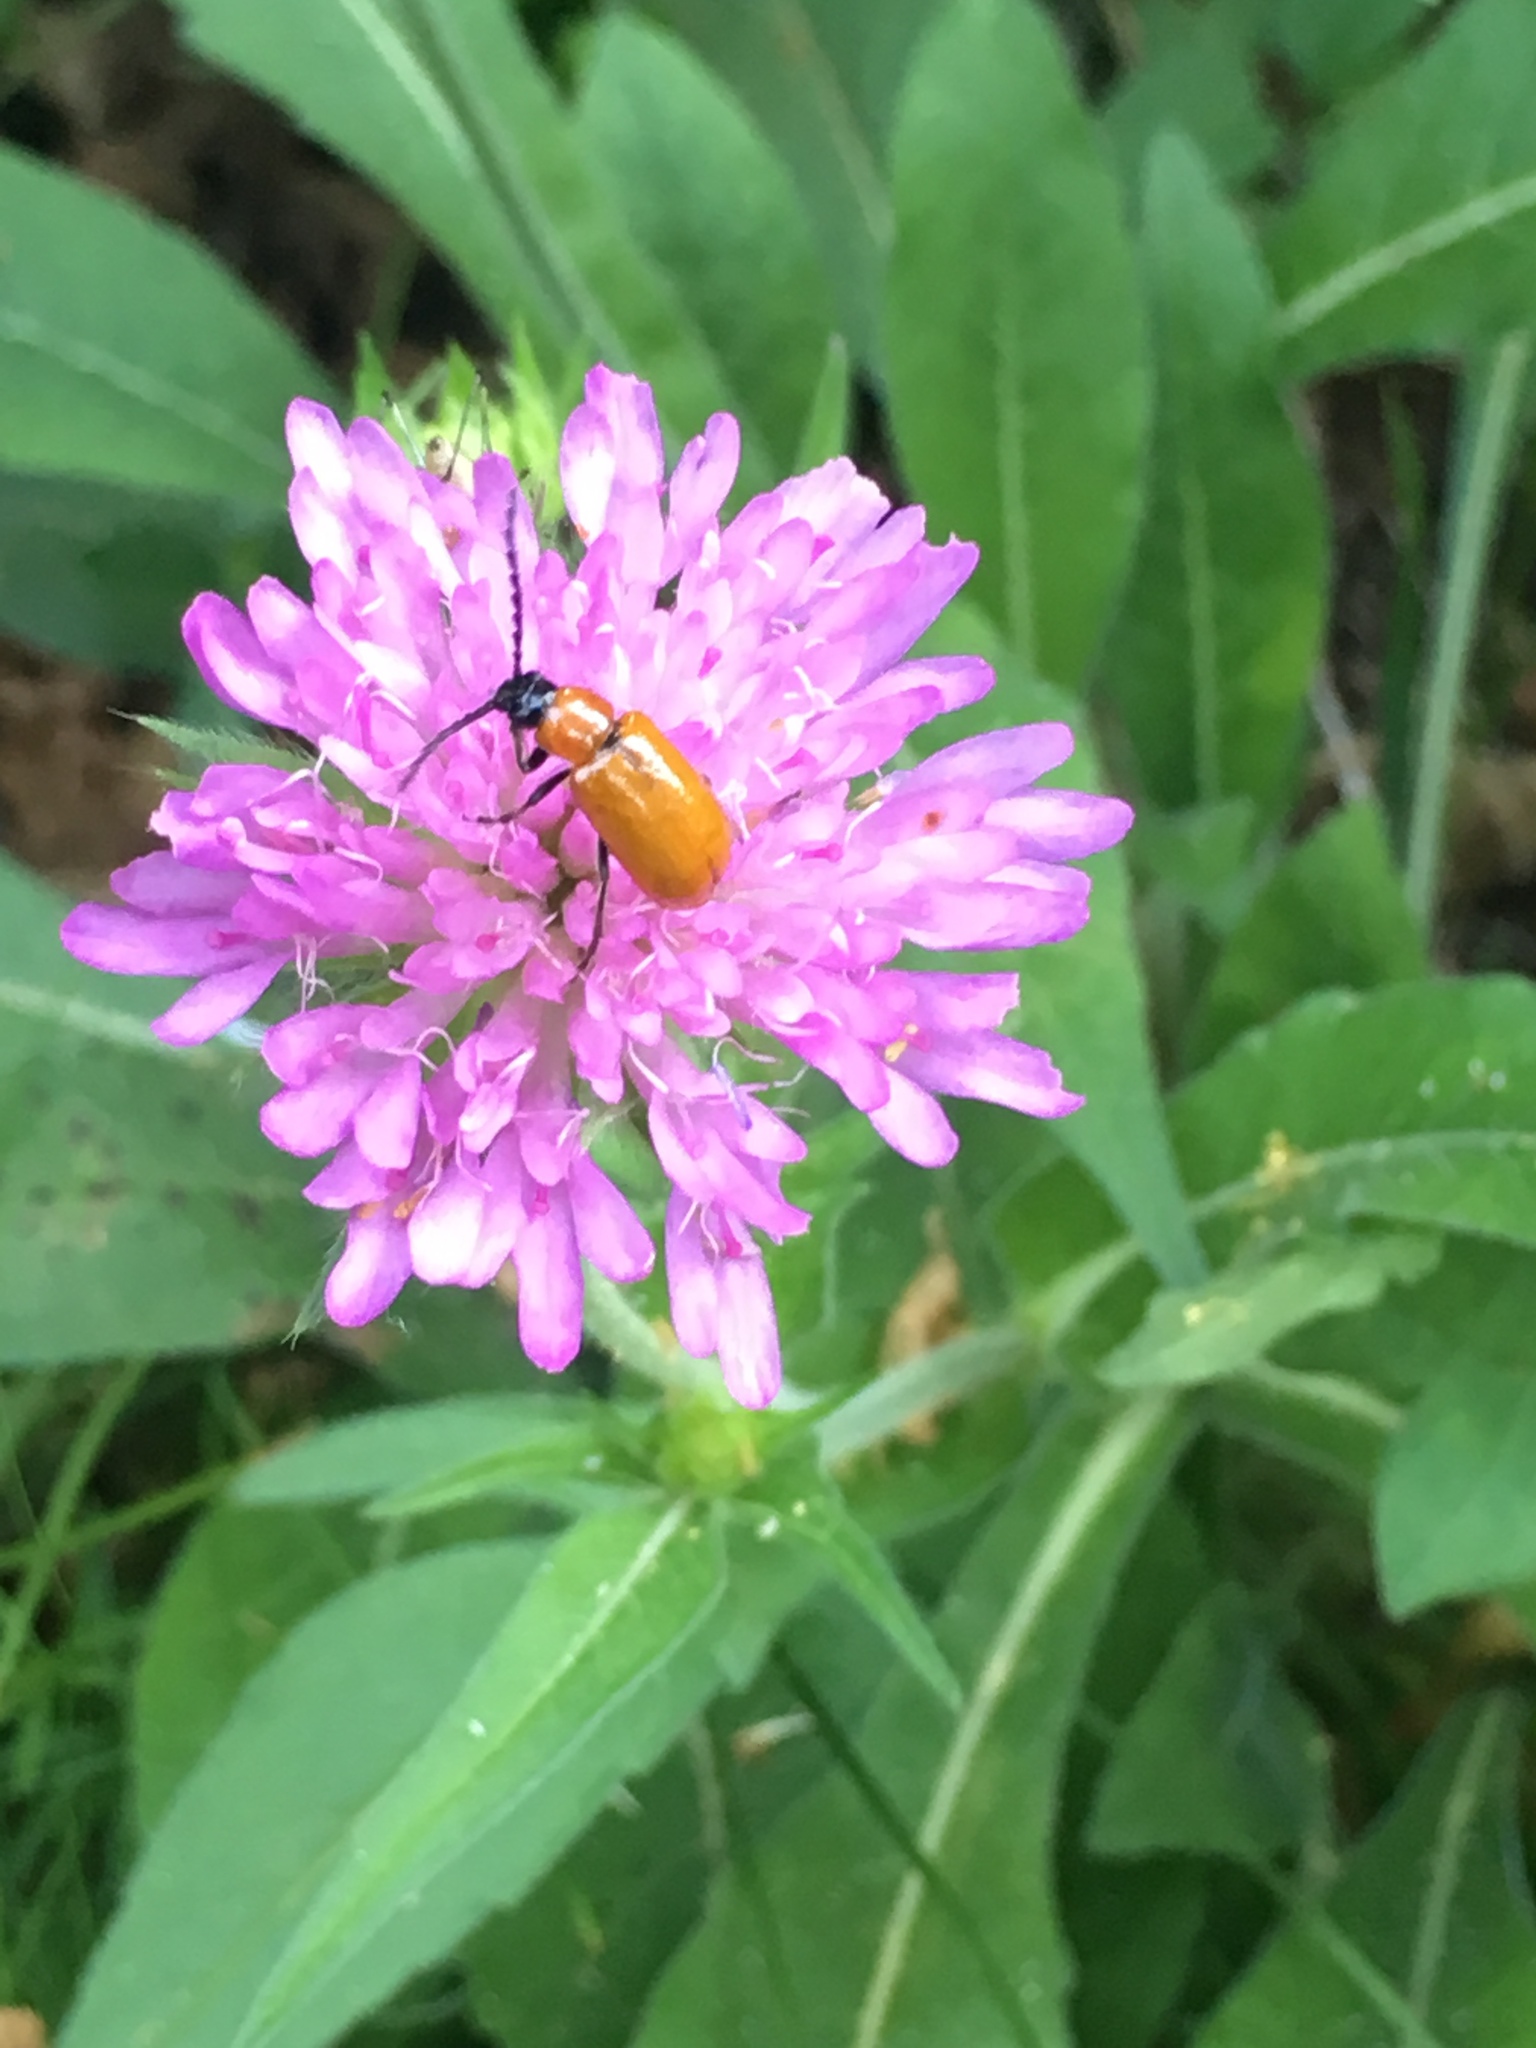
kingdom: Animalia
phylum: Arthropoda
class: Insecta
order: Coleoptera
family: Chrysomelidae
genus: Exosoma
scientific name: Exosoma lusitanicum
